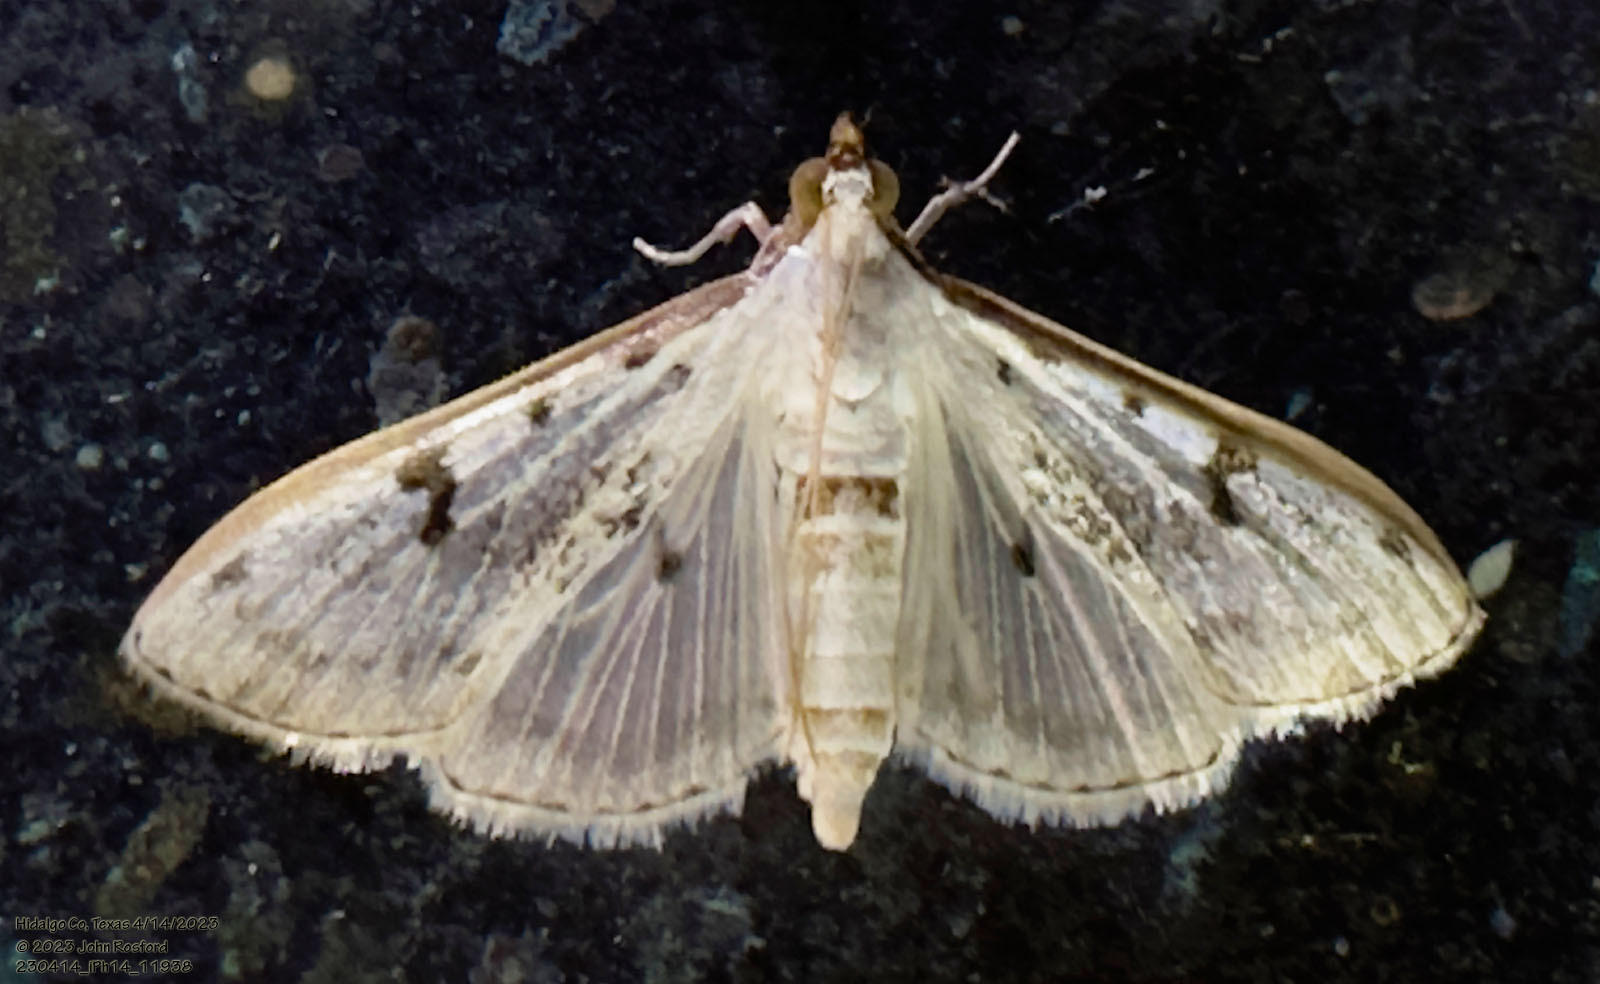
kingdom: Animalia
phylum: Arthropoda
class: Insecta
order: Lepidoptera
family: Crambidae
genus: Palpita
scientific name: Palpita gracilalis
